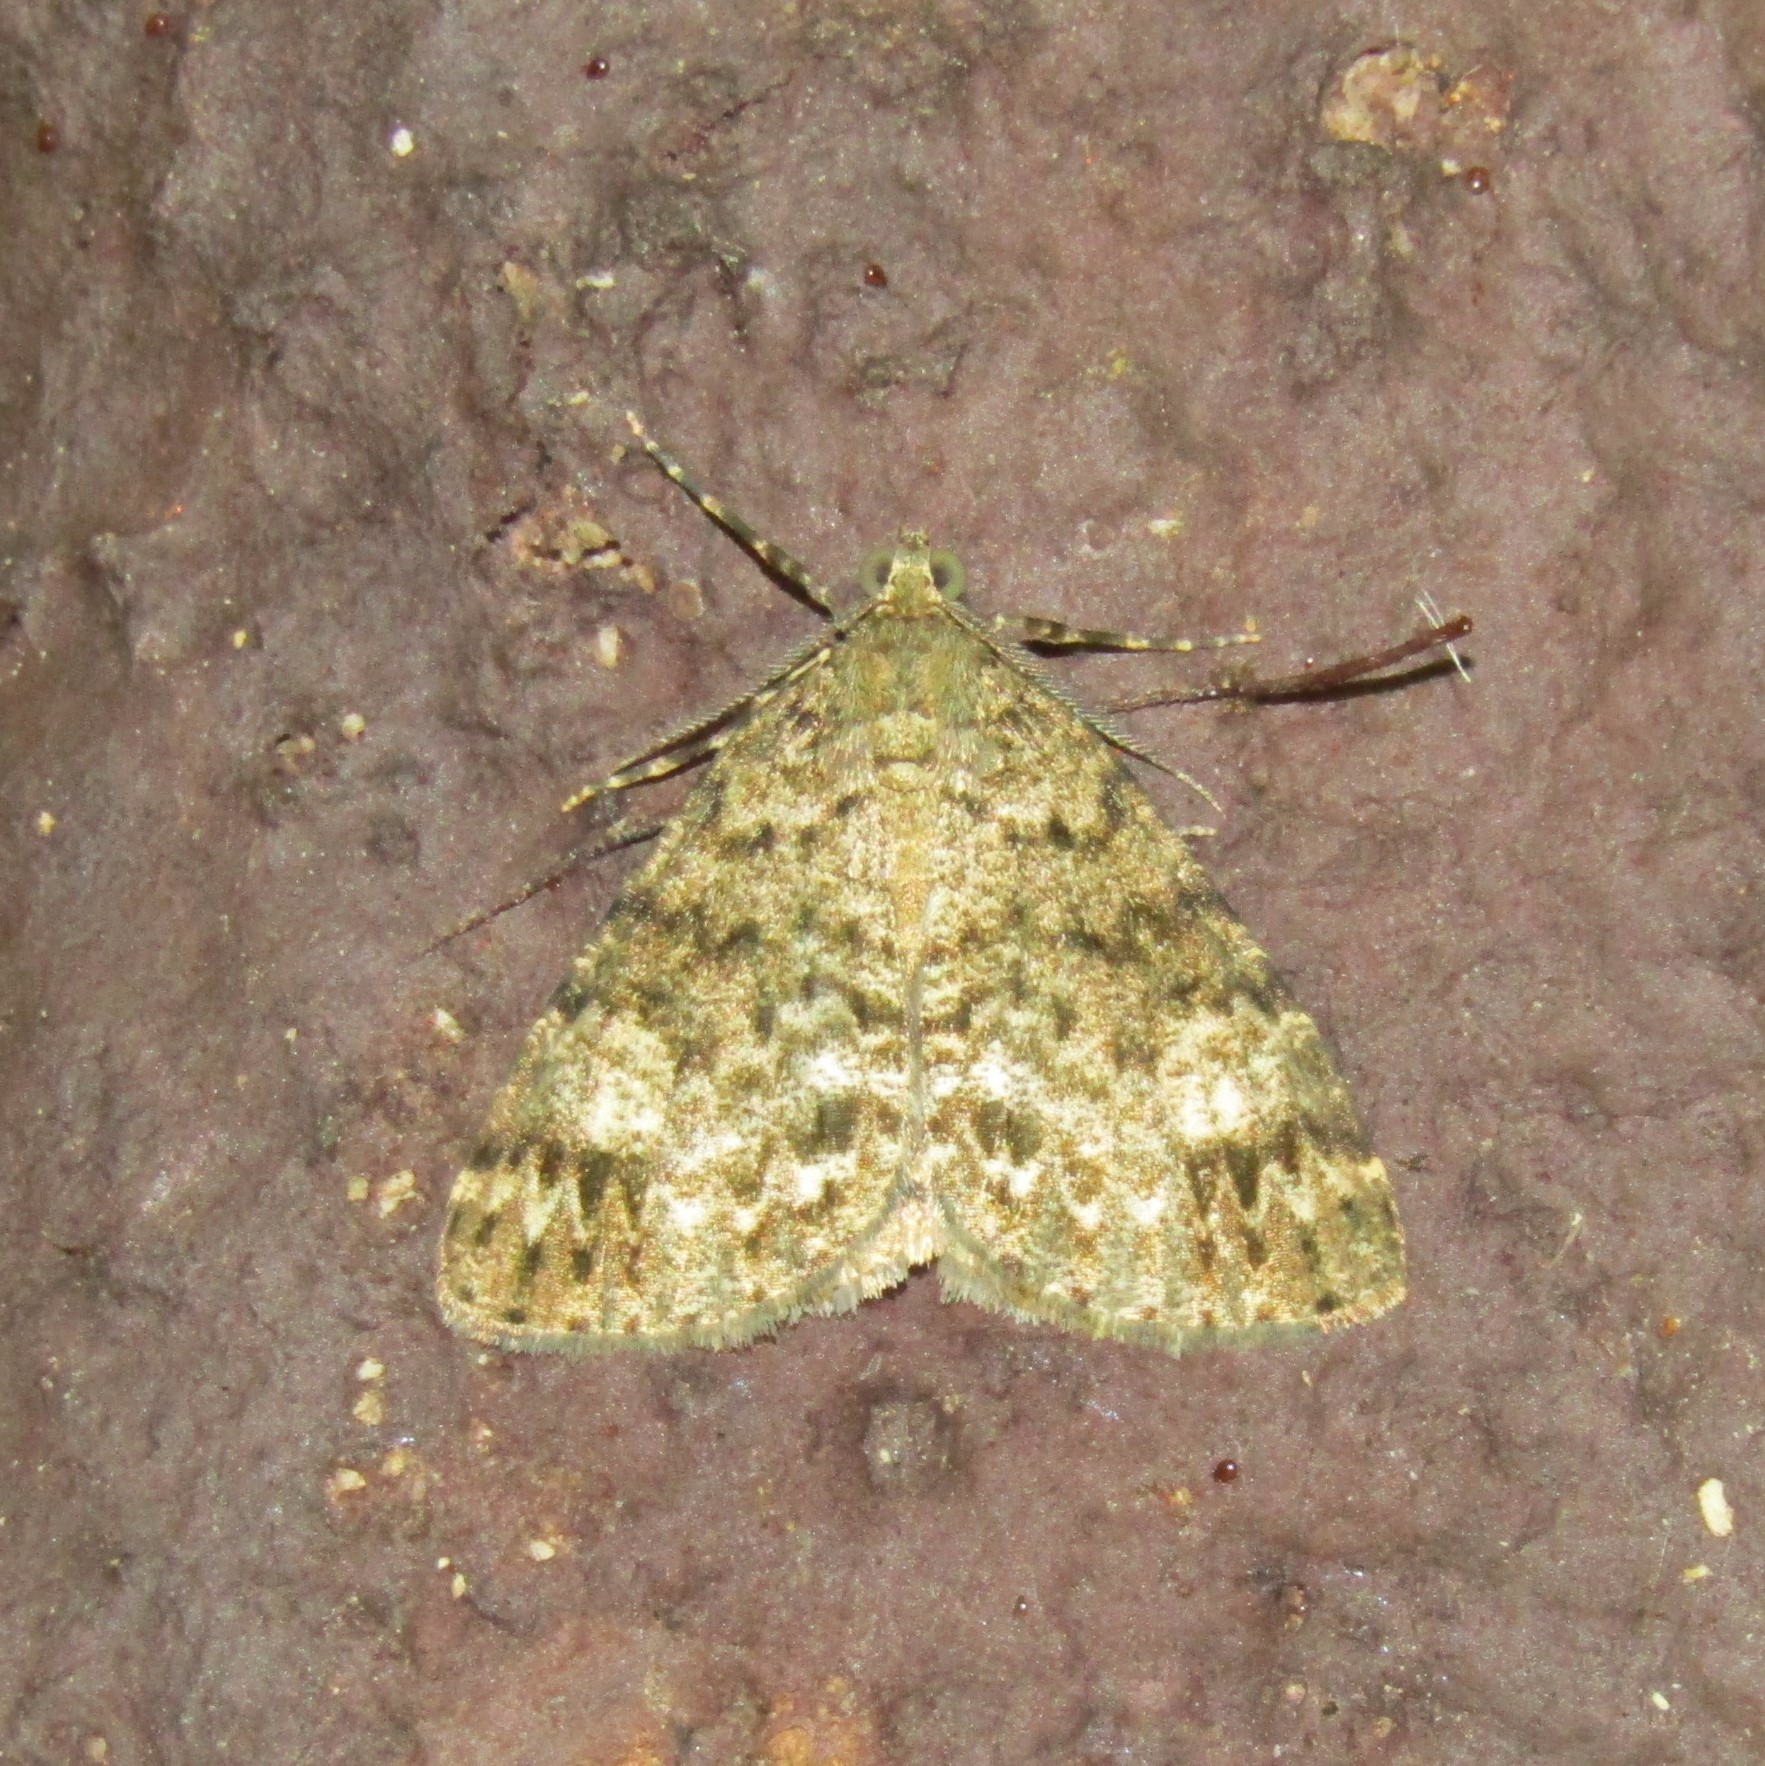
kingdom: Animalia
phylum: Arthropoda
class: Insecta
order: Lepidoptera
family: Geometridae
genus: Pseudocoremia
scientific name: Pseudocoremia indistincta
